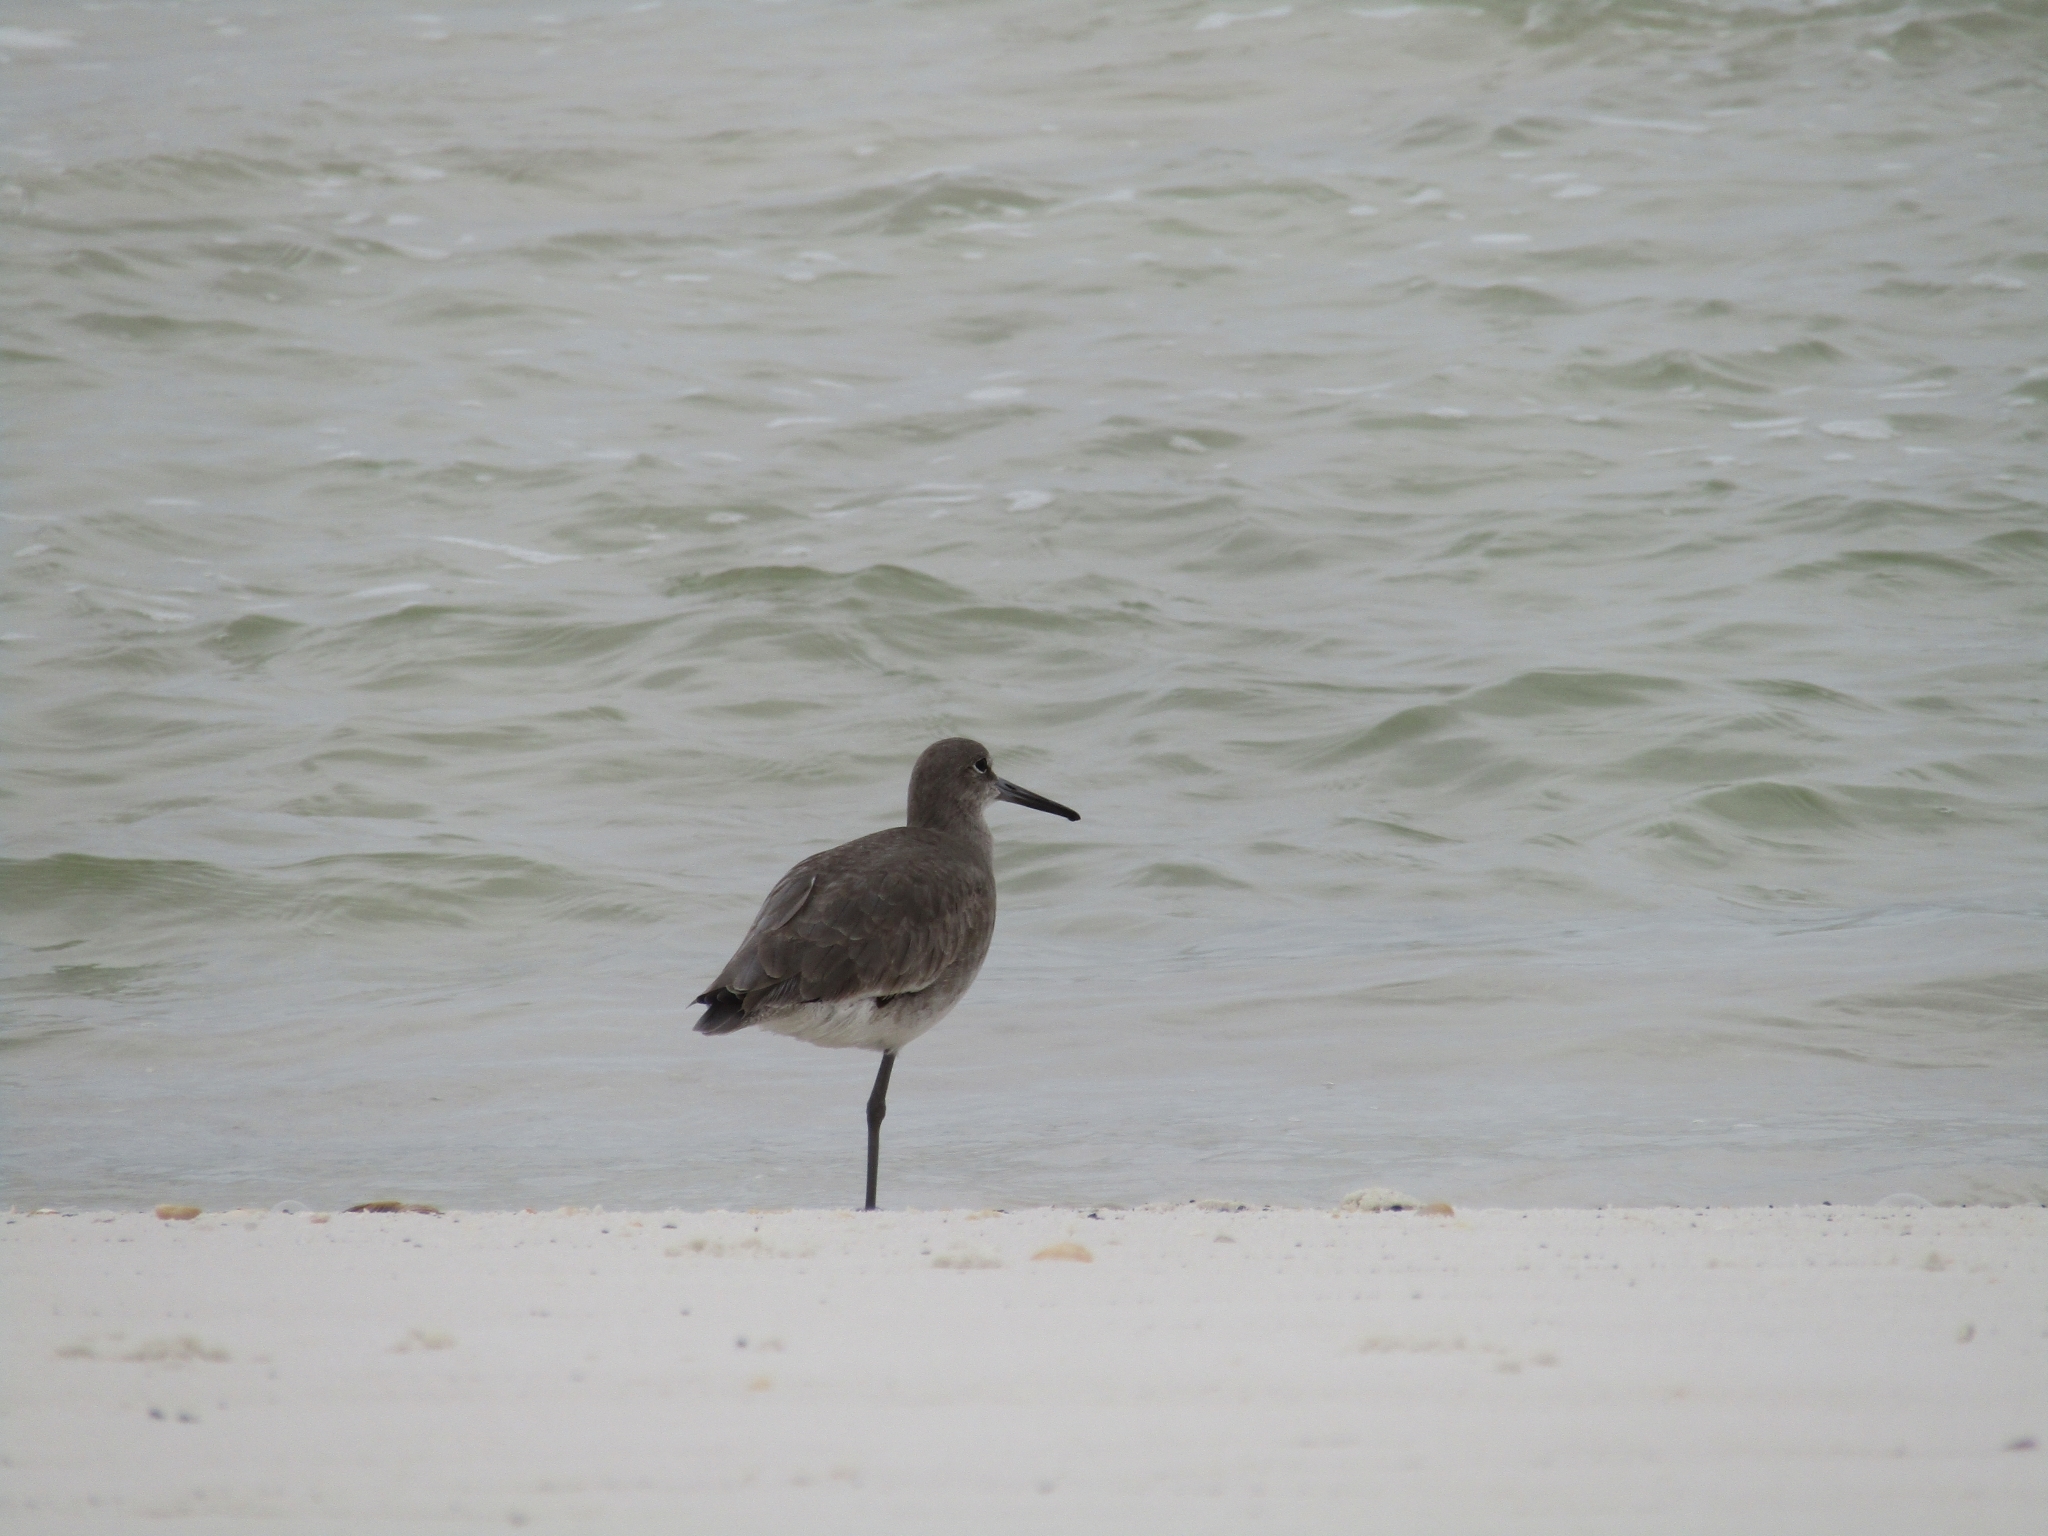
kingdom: Animalia
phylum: Chordata
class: Aves
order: Charadriiformes
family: Scolopacidae
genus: Tringa
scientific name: Tringa semipalmata
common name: Willet
